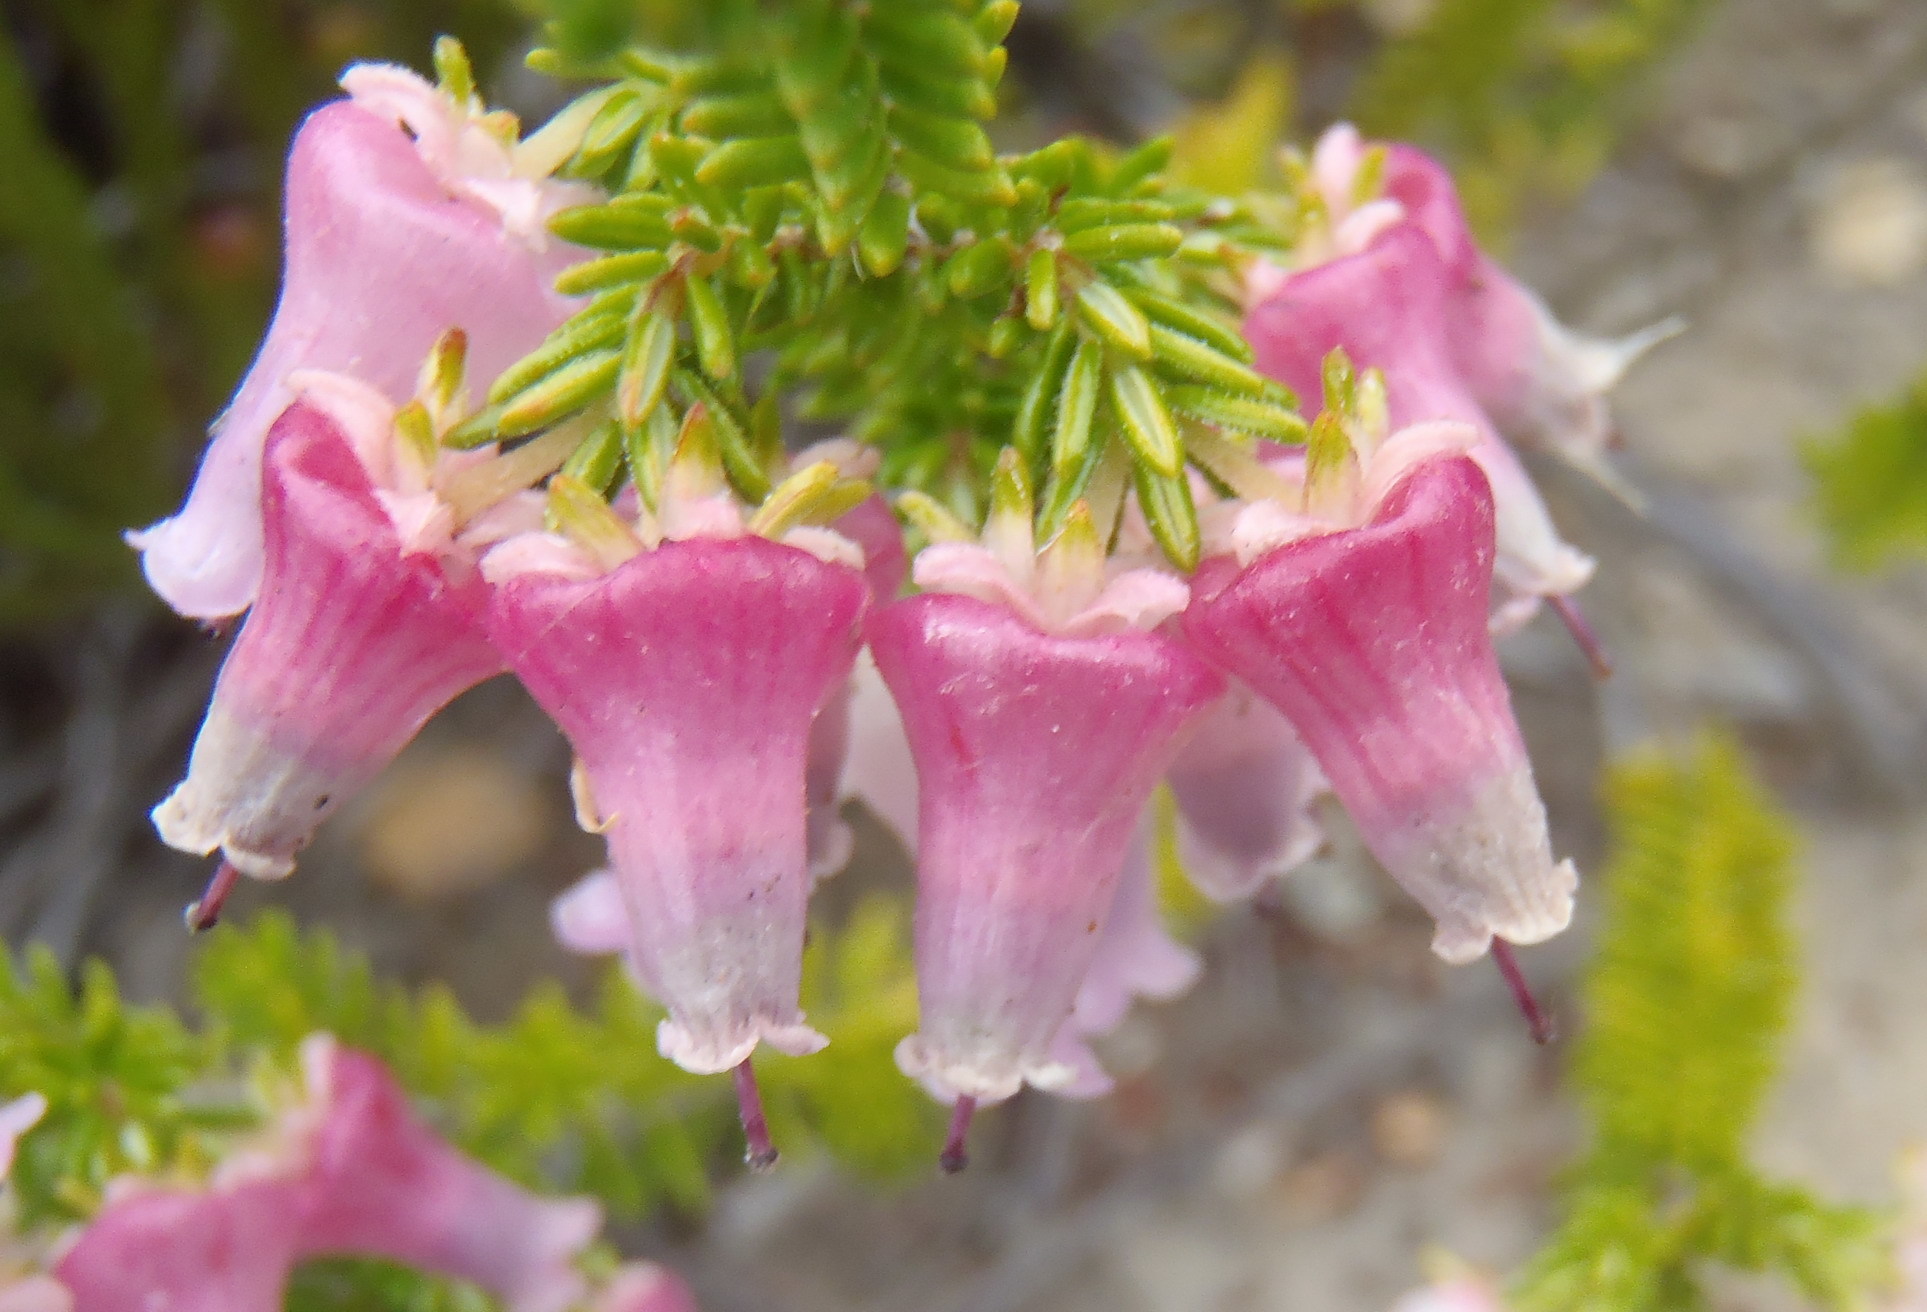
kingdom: Plantae
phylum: Tracheophyta
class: Magnoliopsida
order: Ericales
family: Ericaceae
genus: Erica
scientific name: Erica glomiflora
